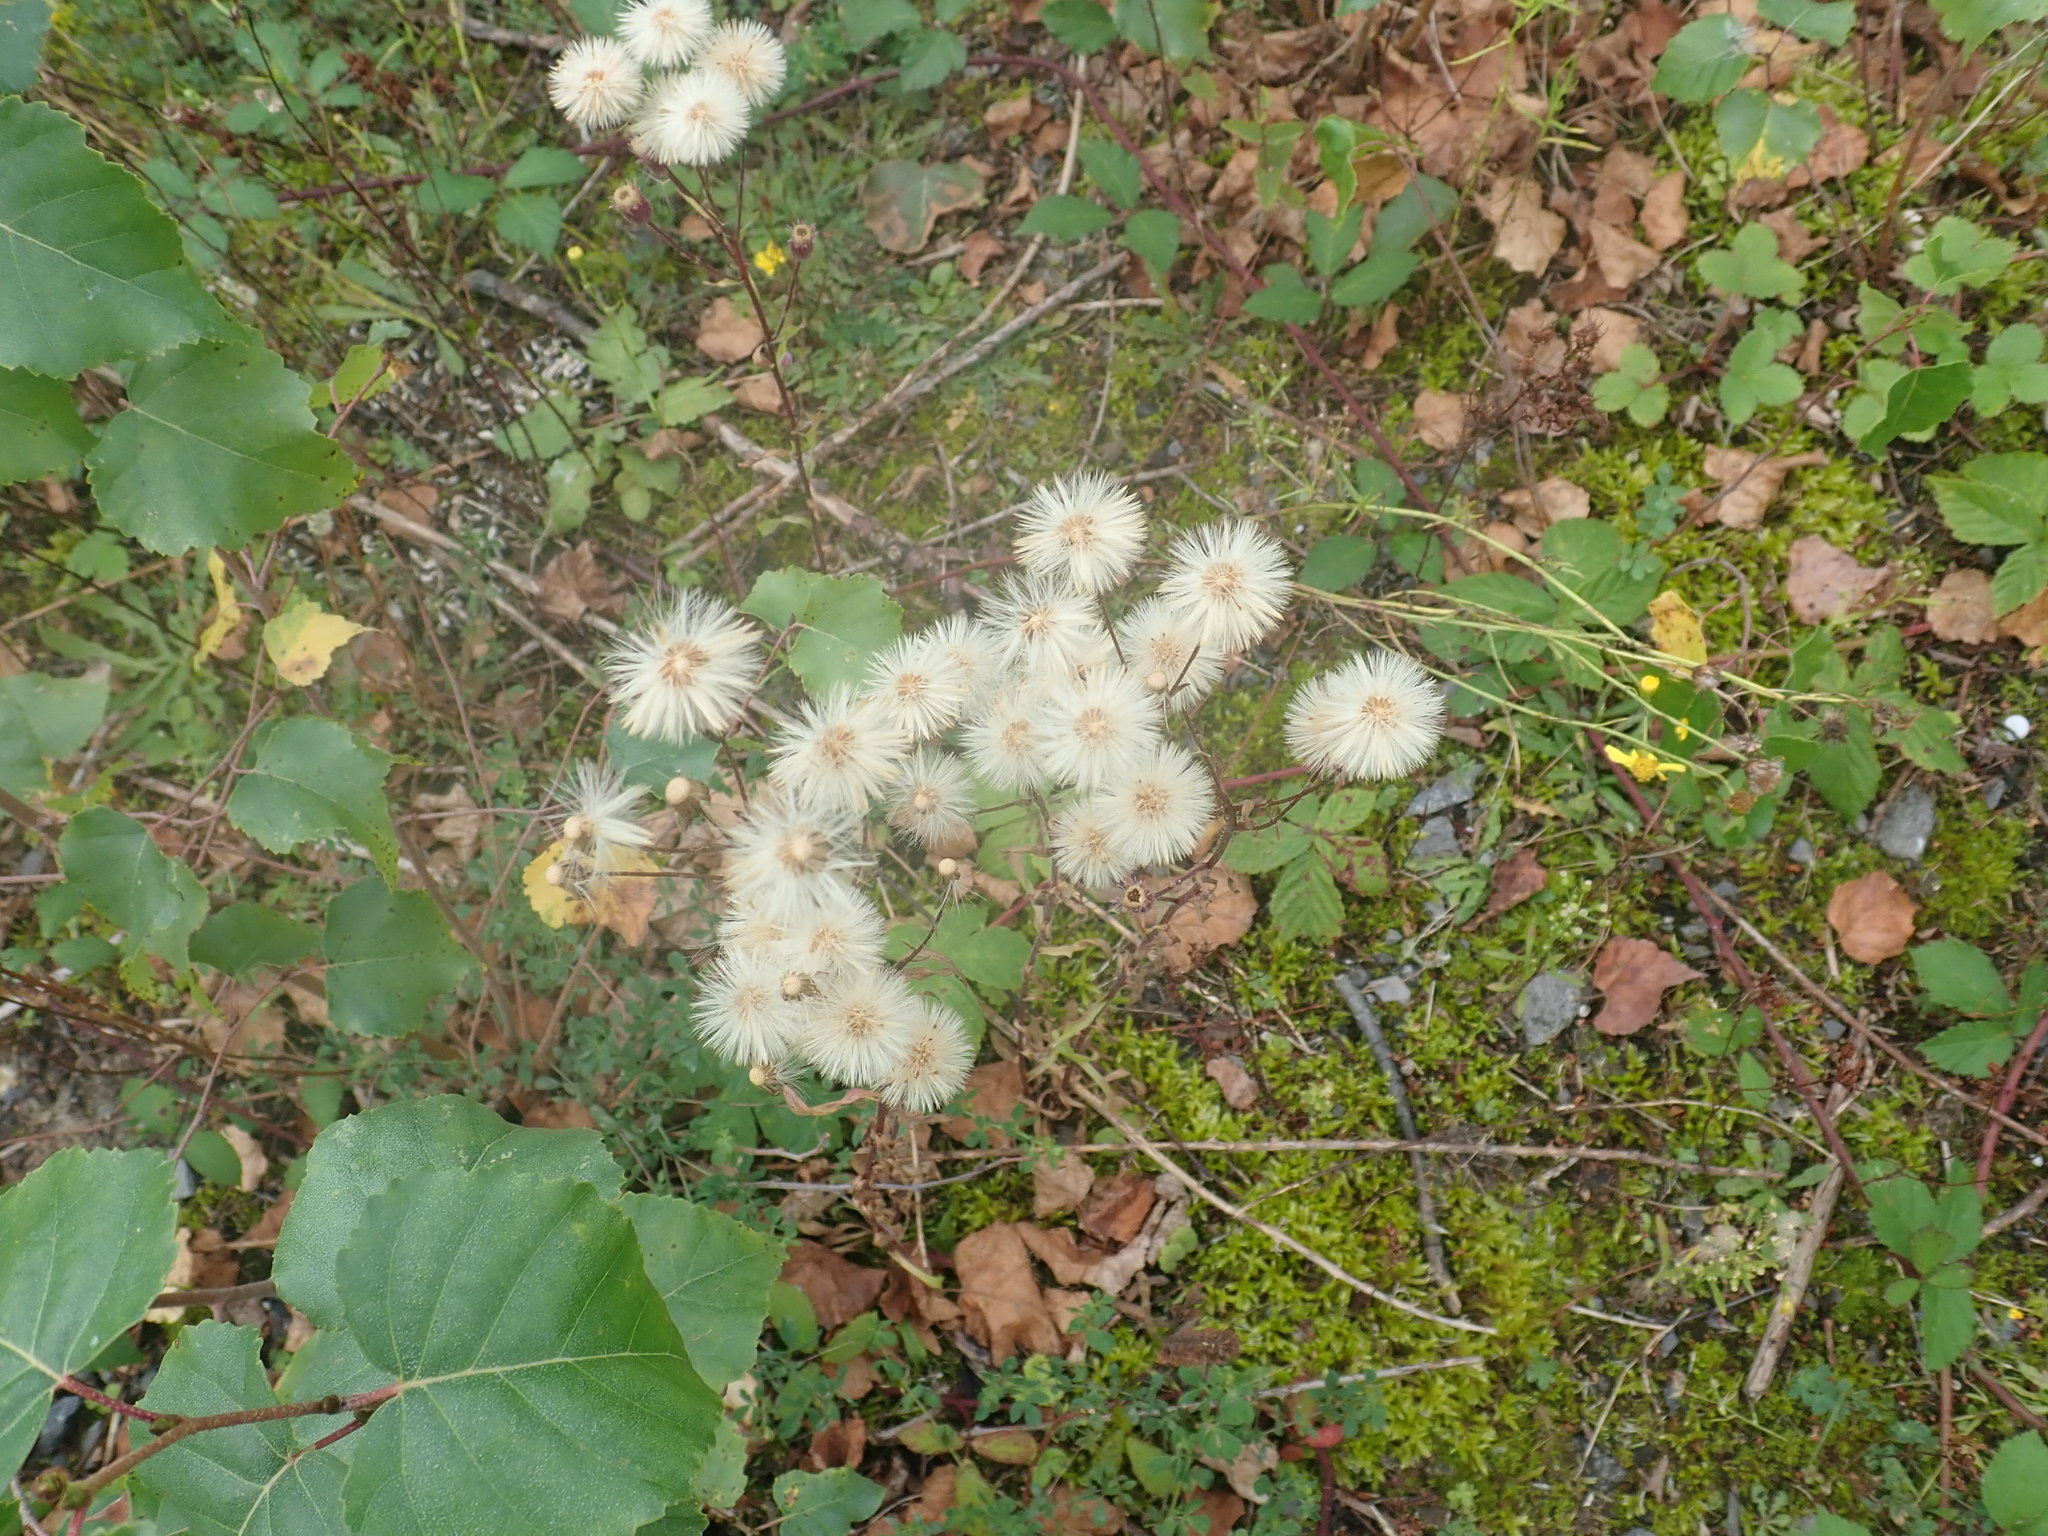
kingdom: Plantae
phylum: Tracheophyta
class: Magnoliopsida
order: Asterales
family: Asteraceae
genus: Erigeron
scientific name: Erigeron acris
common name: Blue fleabane
